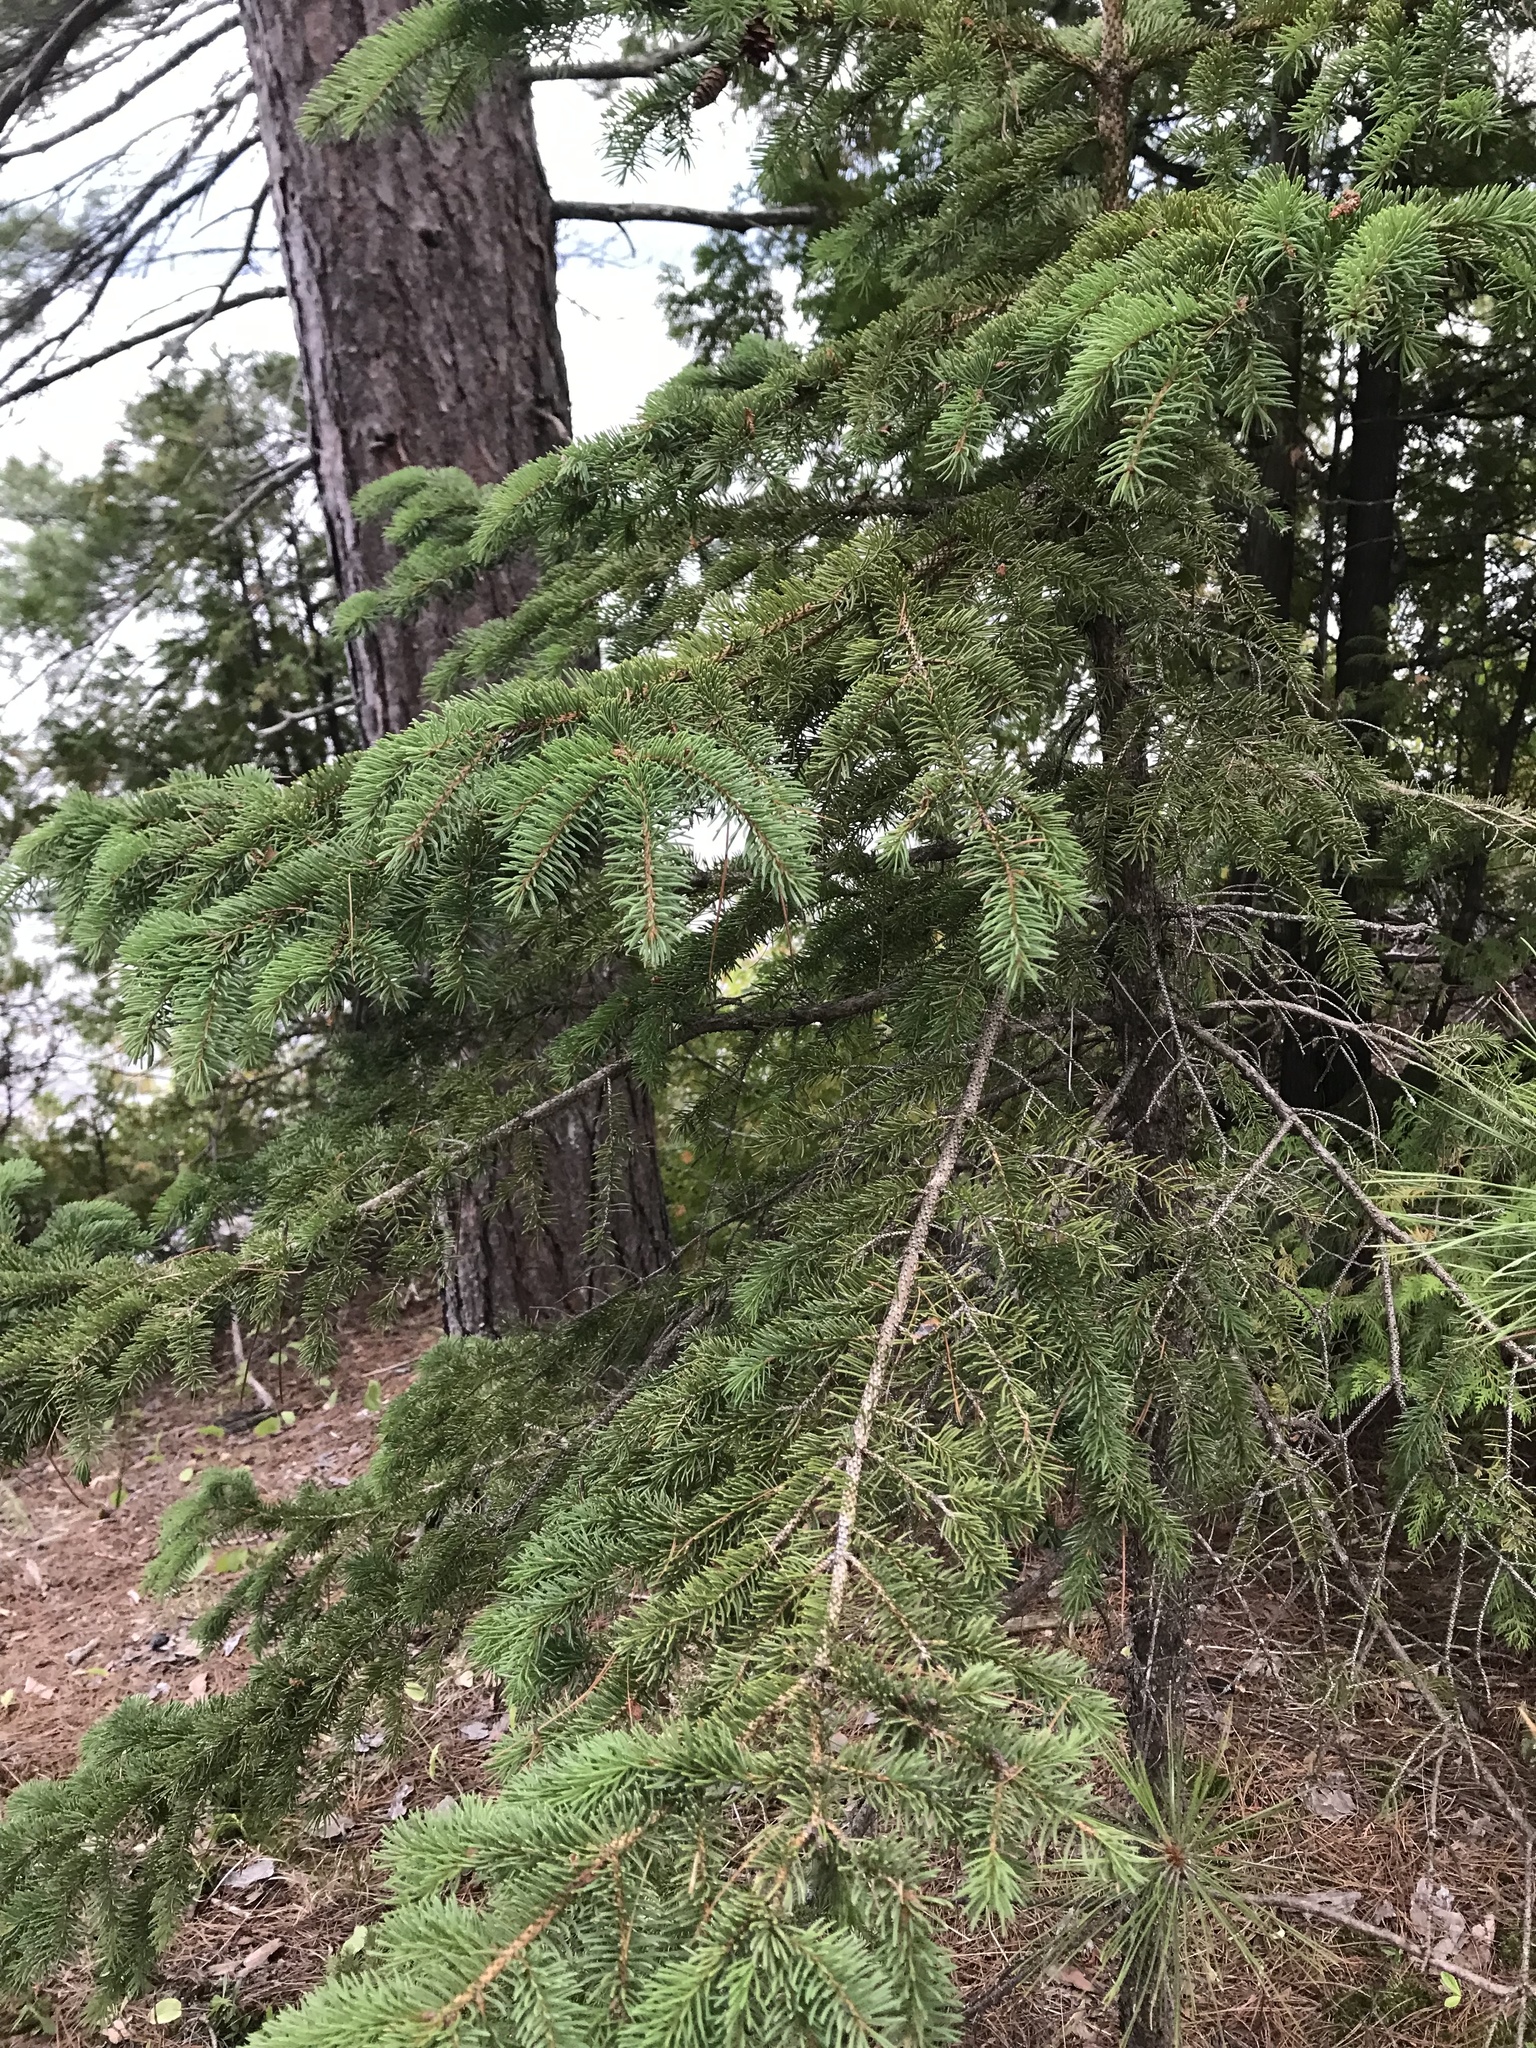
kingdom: Plantae
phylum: Tracheophyta
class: Pinopsida
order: Pinales
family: Pinaceae
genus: Picea
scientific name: Picea glauca
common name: White spruce
